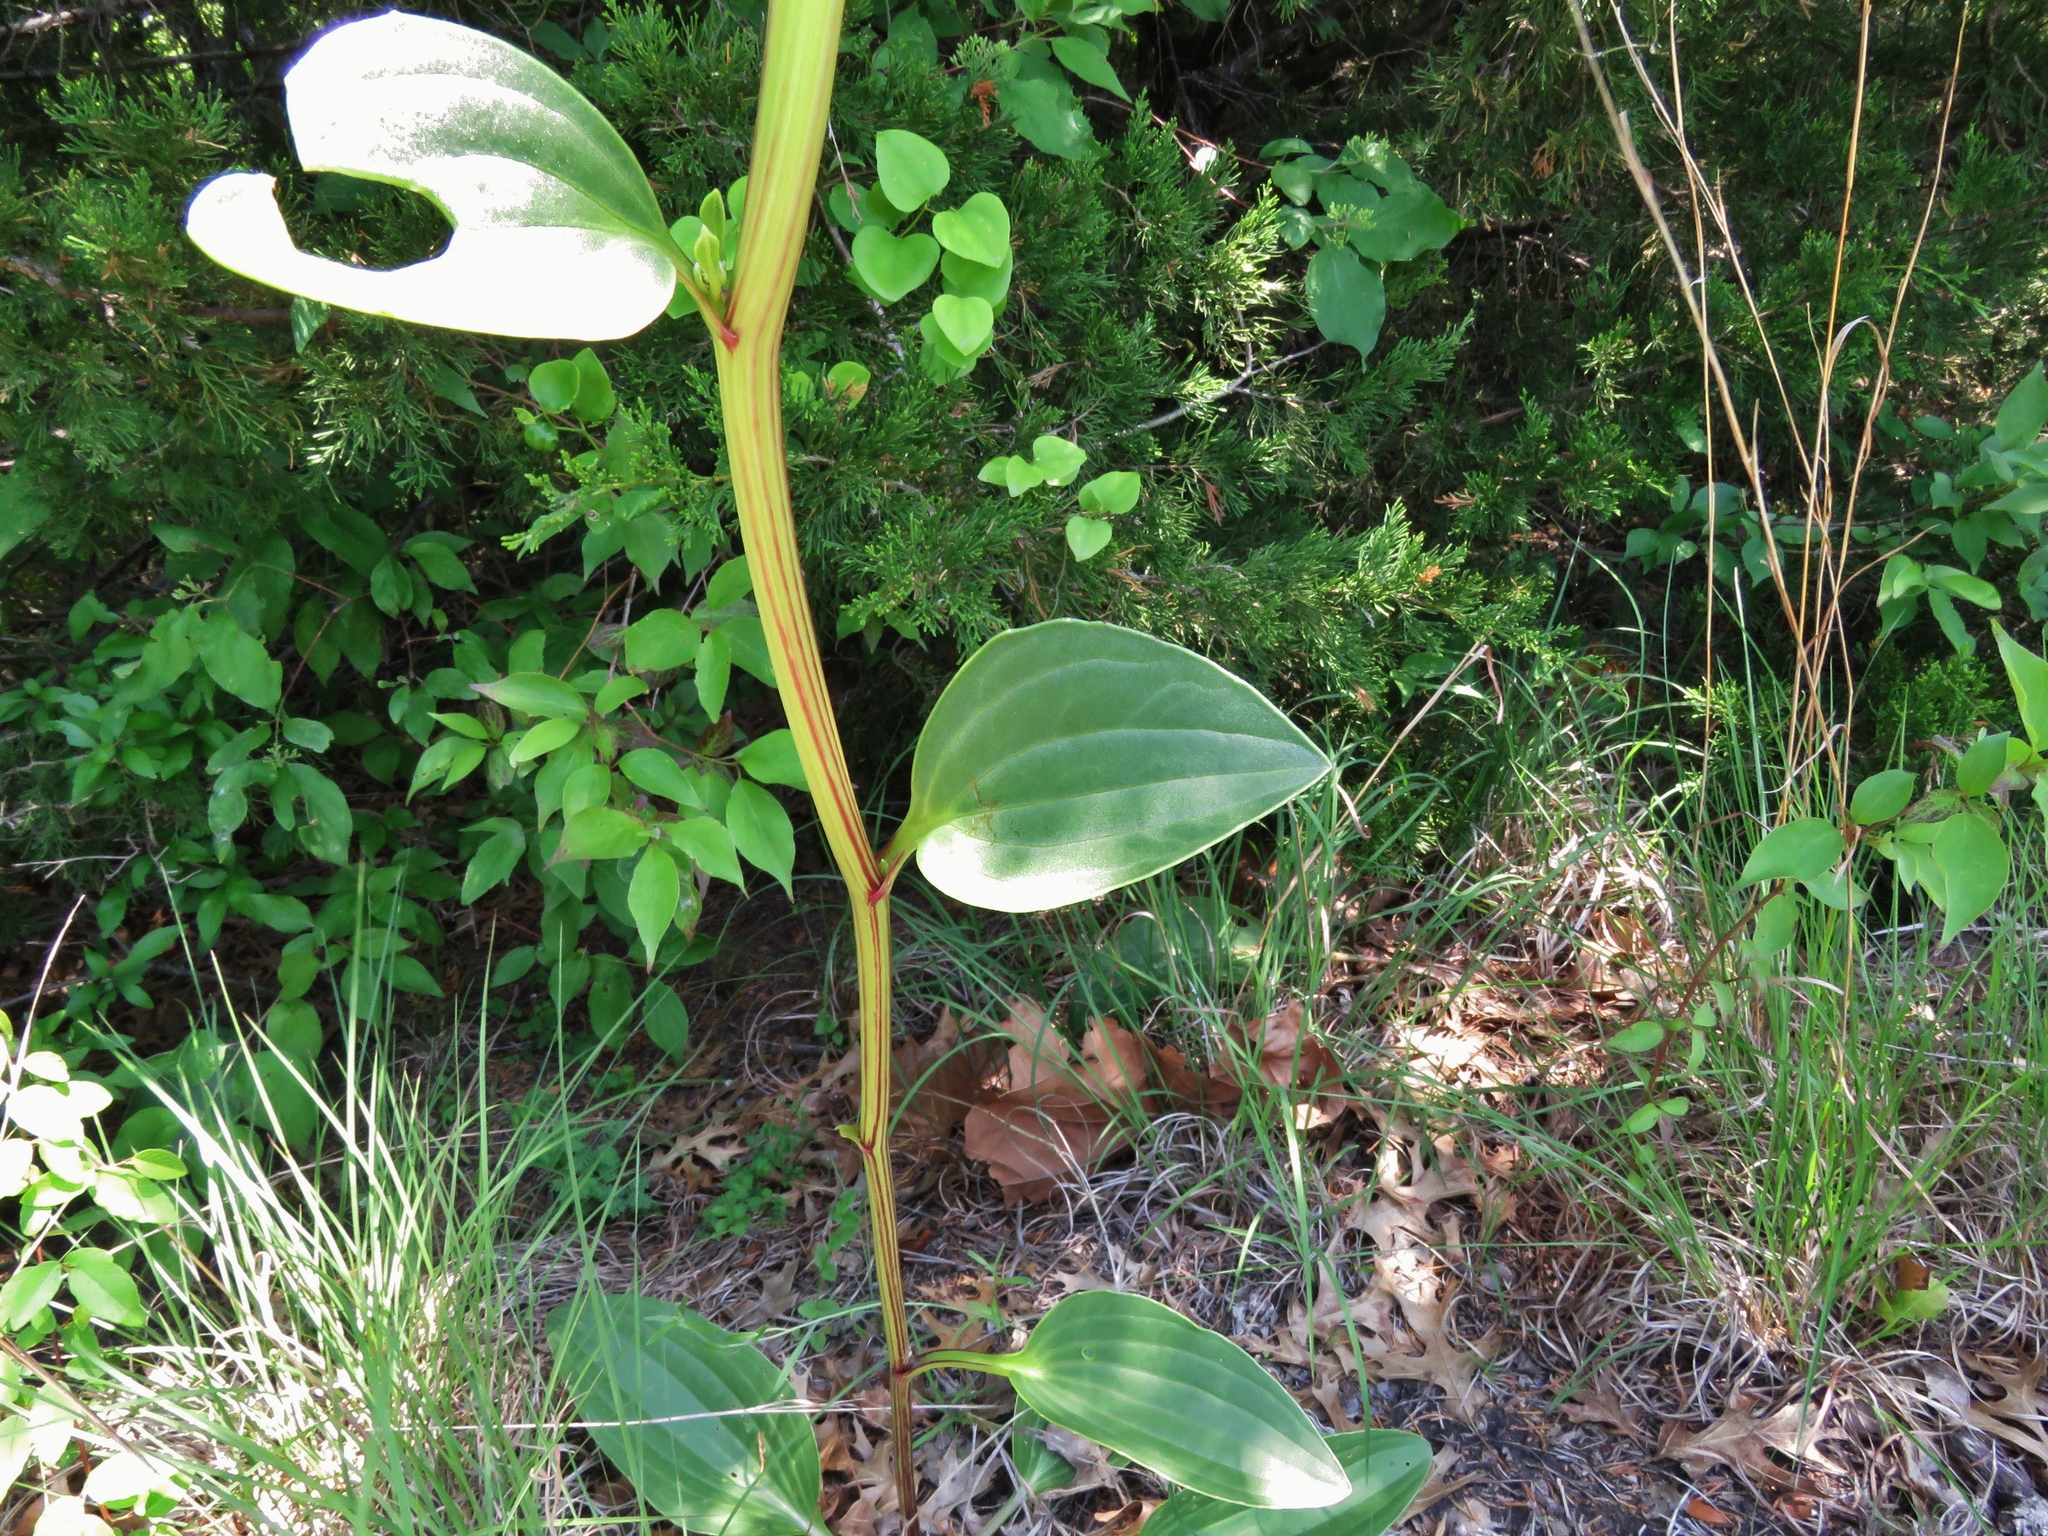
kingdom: Plantae
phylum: Tracheophyta
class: Magnoliopsida
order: Asterales
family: Asteraceae
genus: Arnoglossum
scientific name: Arnoglossum plantagineum
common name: Groove-stemmed indian-plantain
